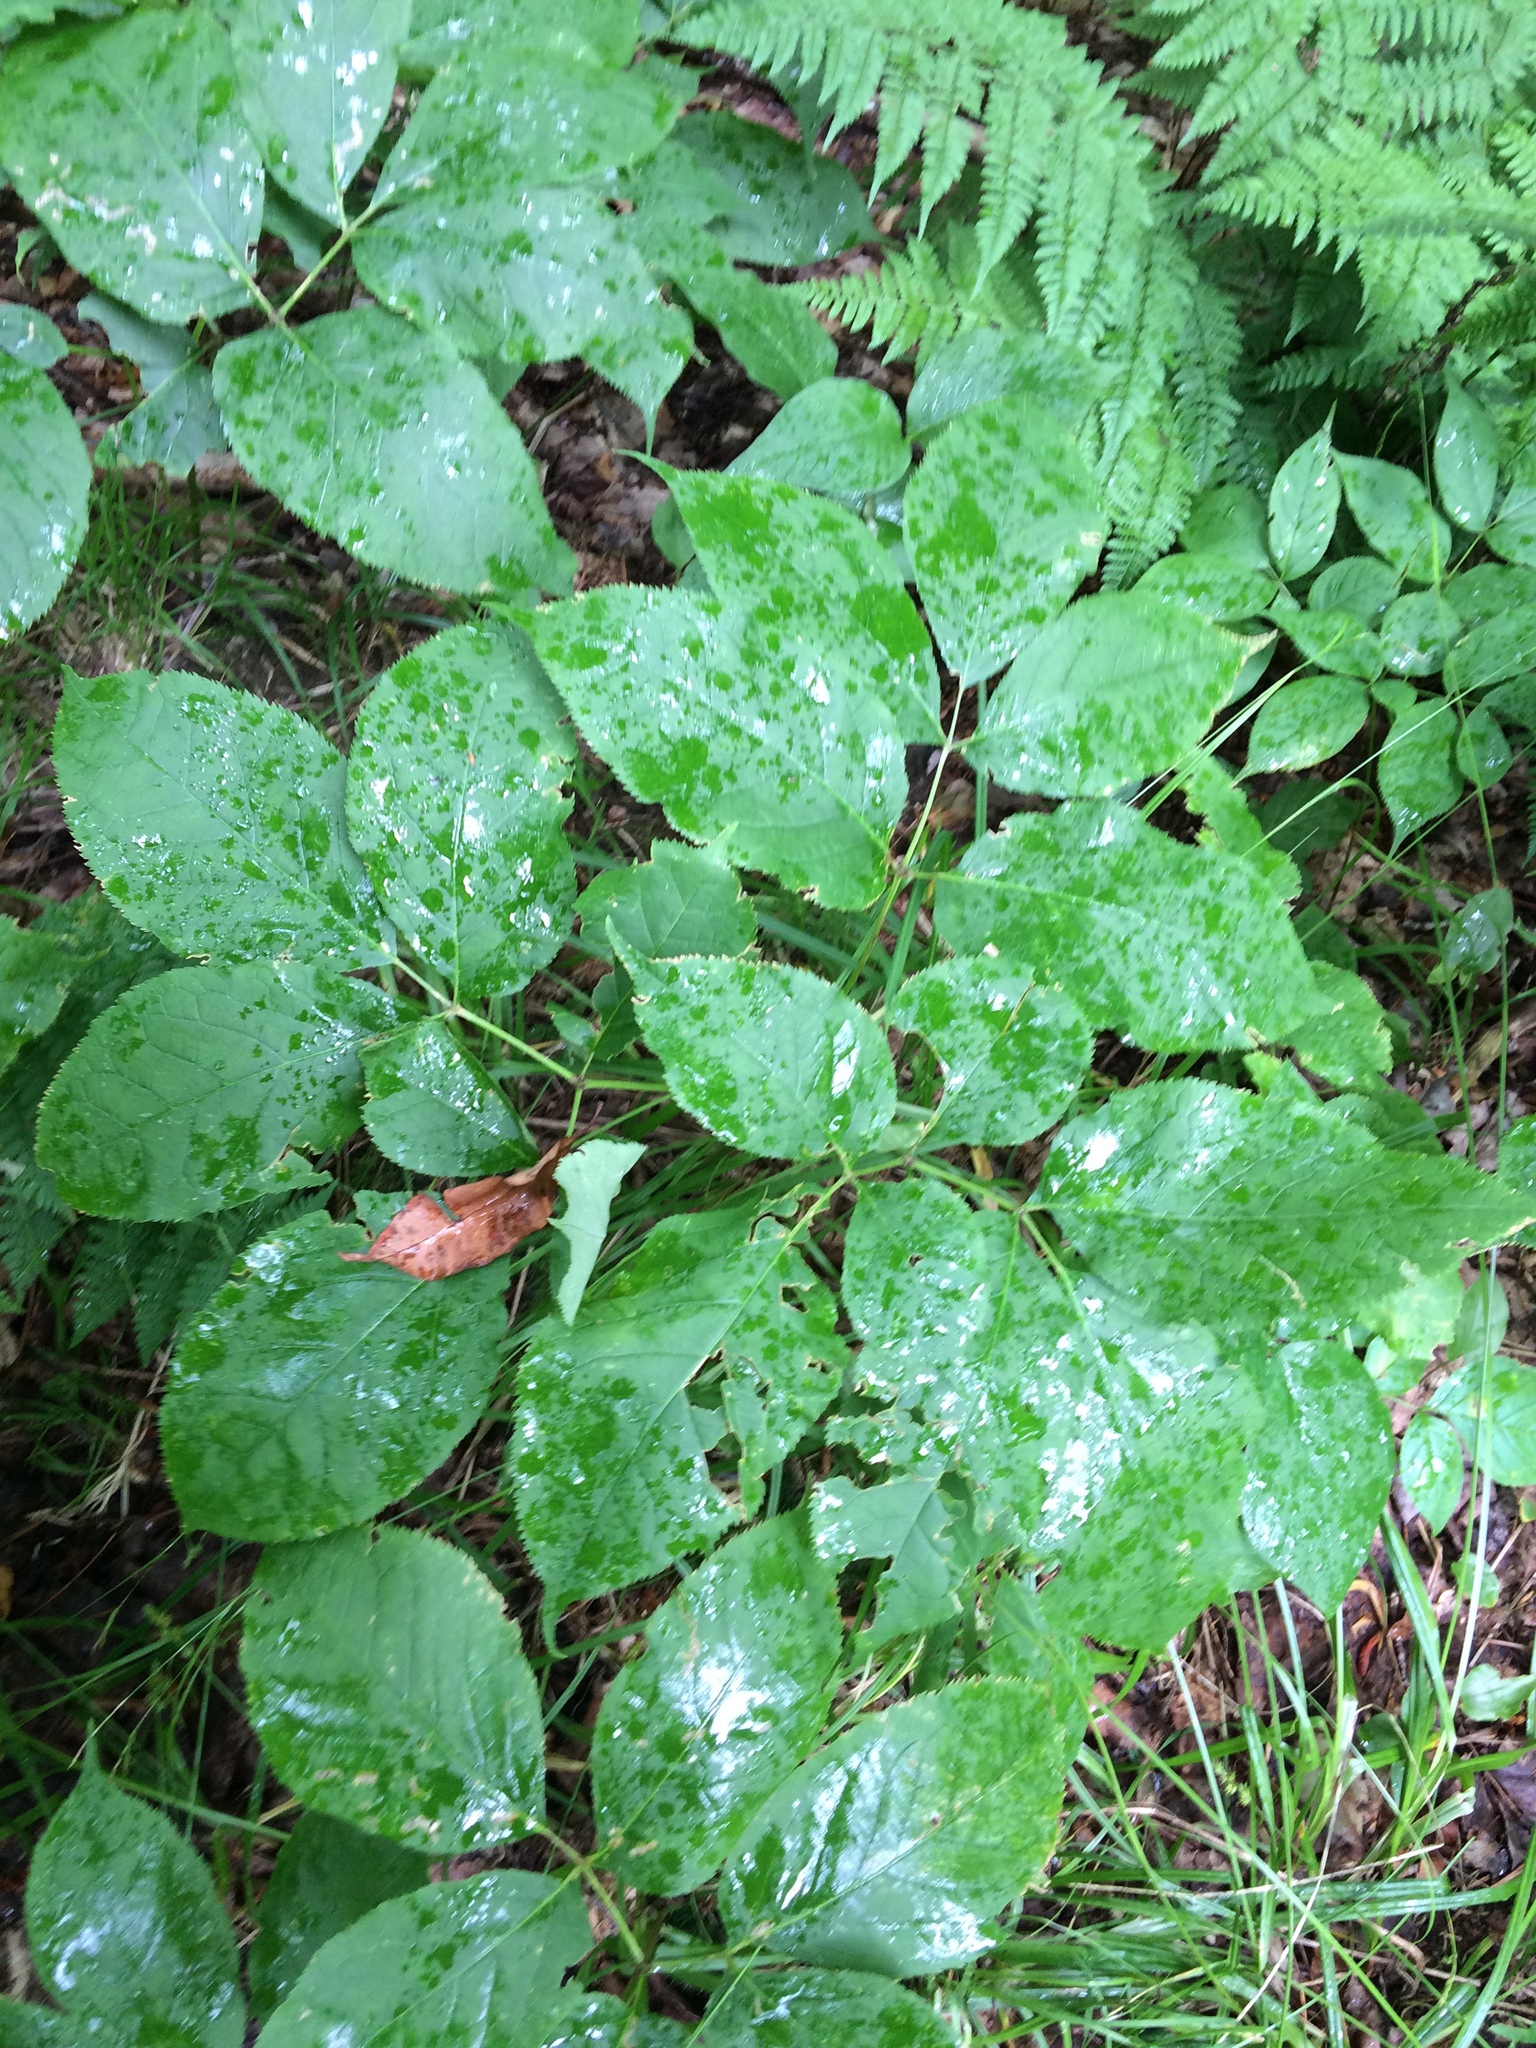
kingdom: Plantae
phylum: Tracheophyta
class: Magnoliopsida
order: Apiales
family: Araliaceae
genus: Aralia
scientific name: Aralia nudicaulis
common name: Wild sarsaparilla
